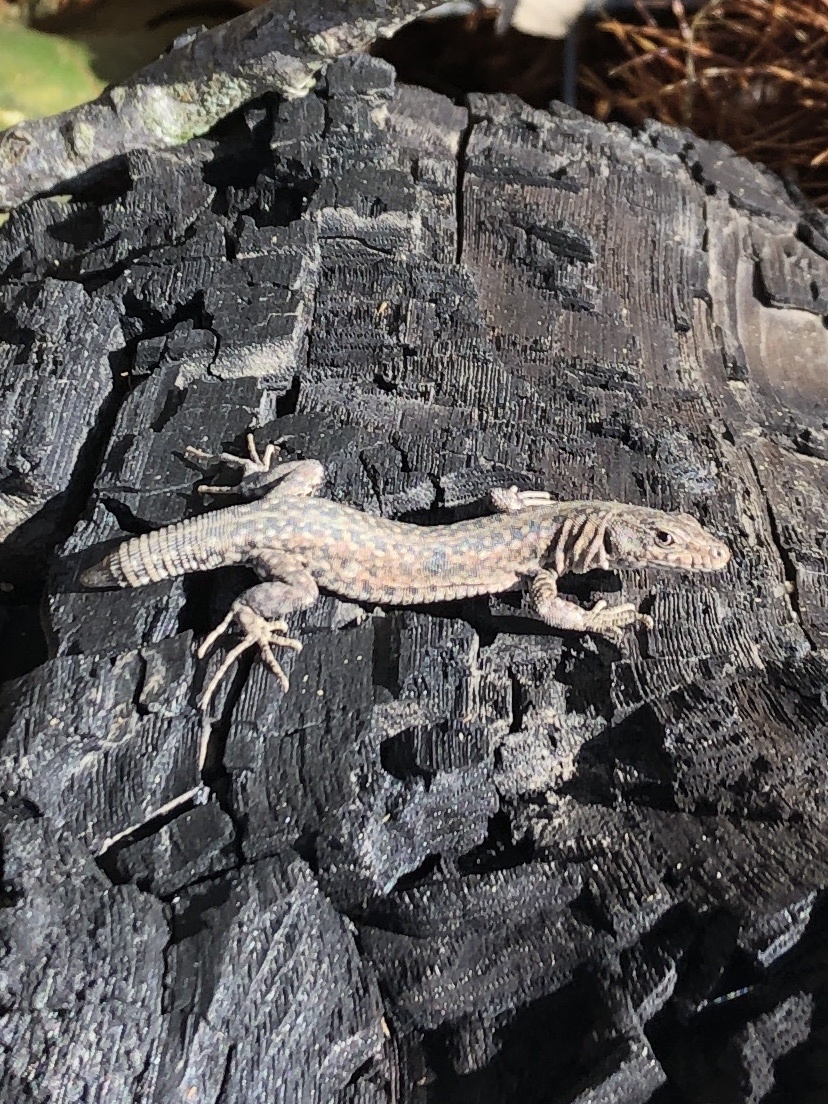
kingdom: Animalia
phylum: Chordata
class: Squamata
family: Lacertidae
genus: Podarcis
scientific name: Podarcis guadarramae
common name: Guadarrama wall lizard
